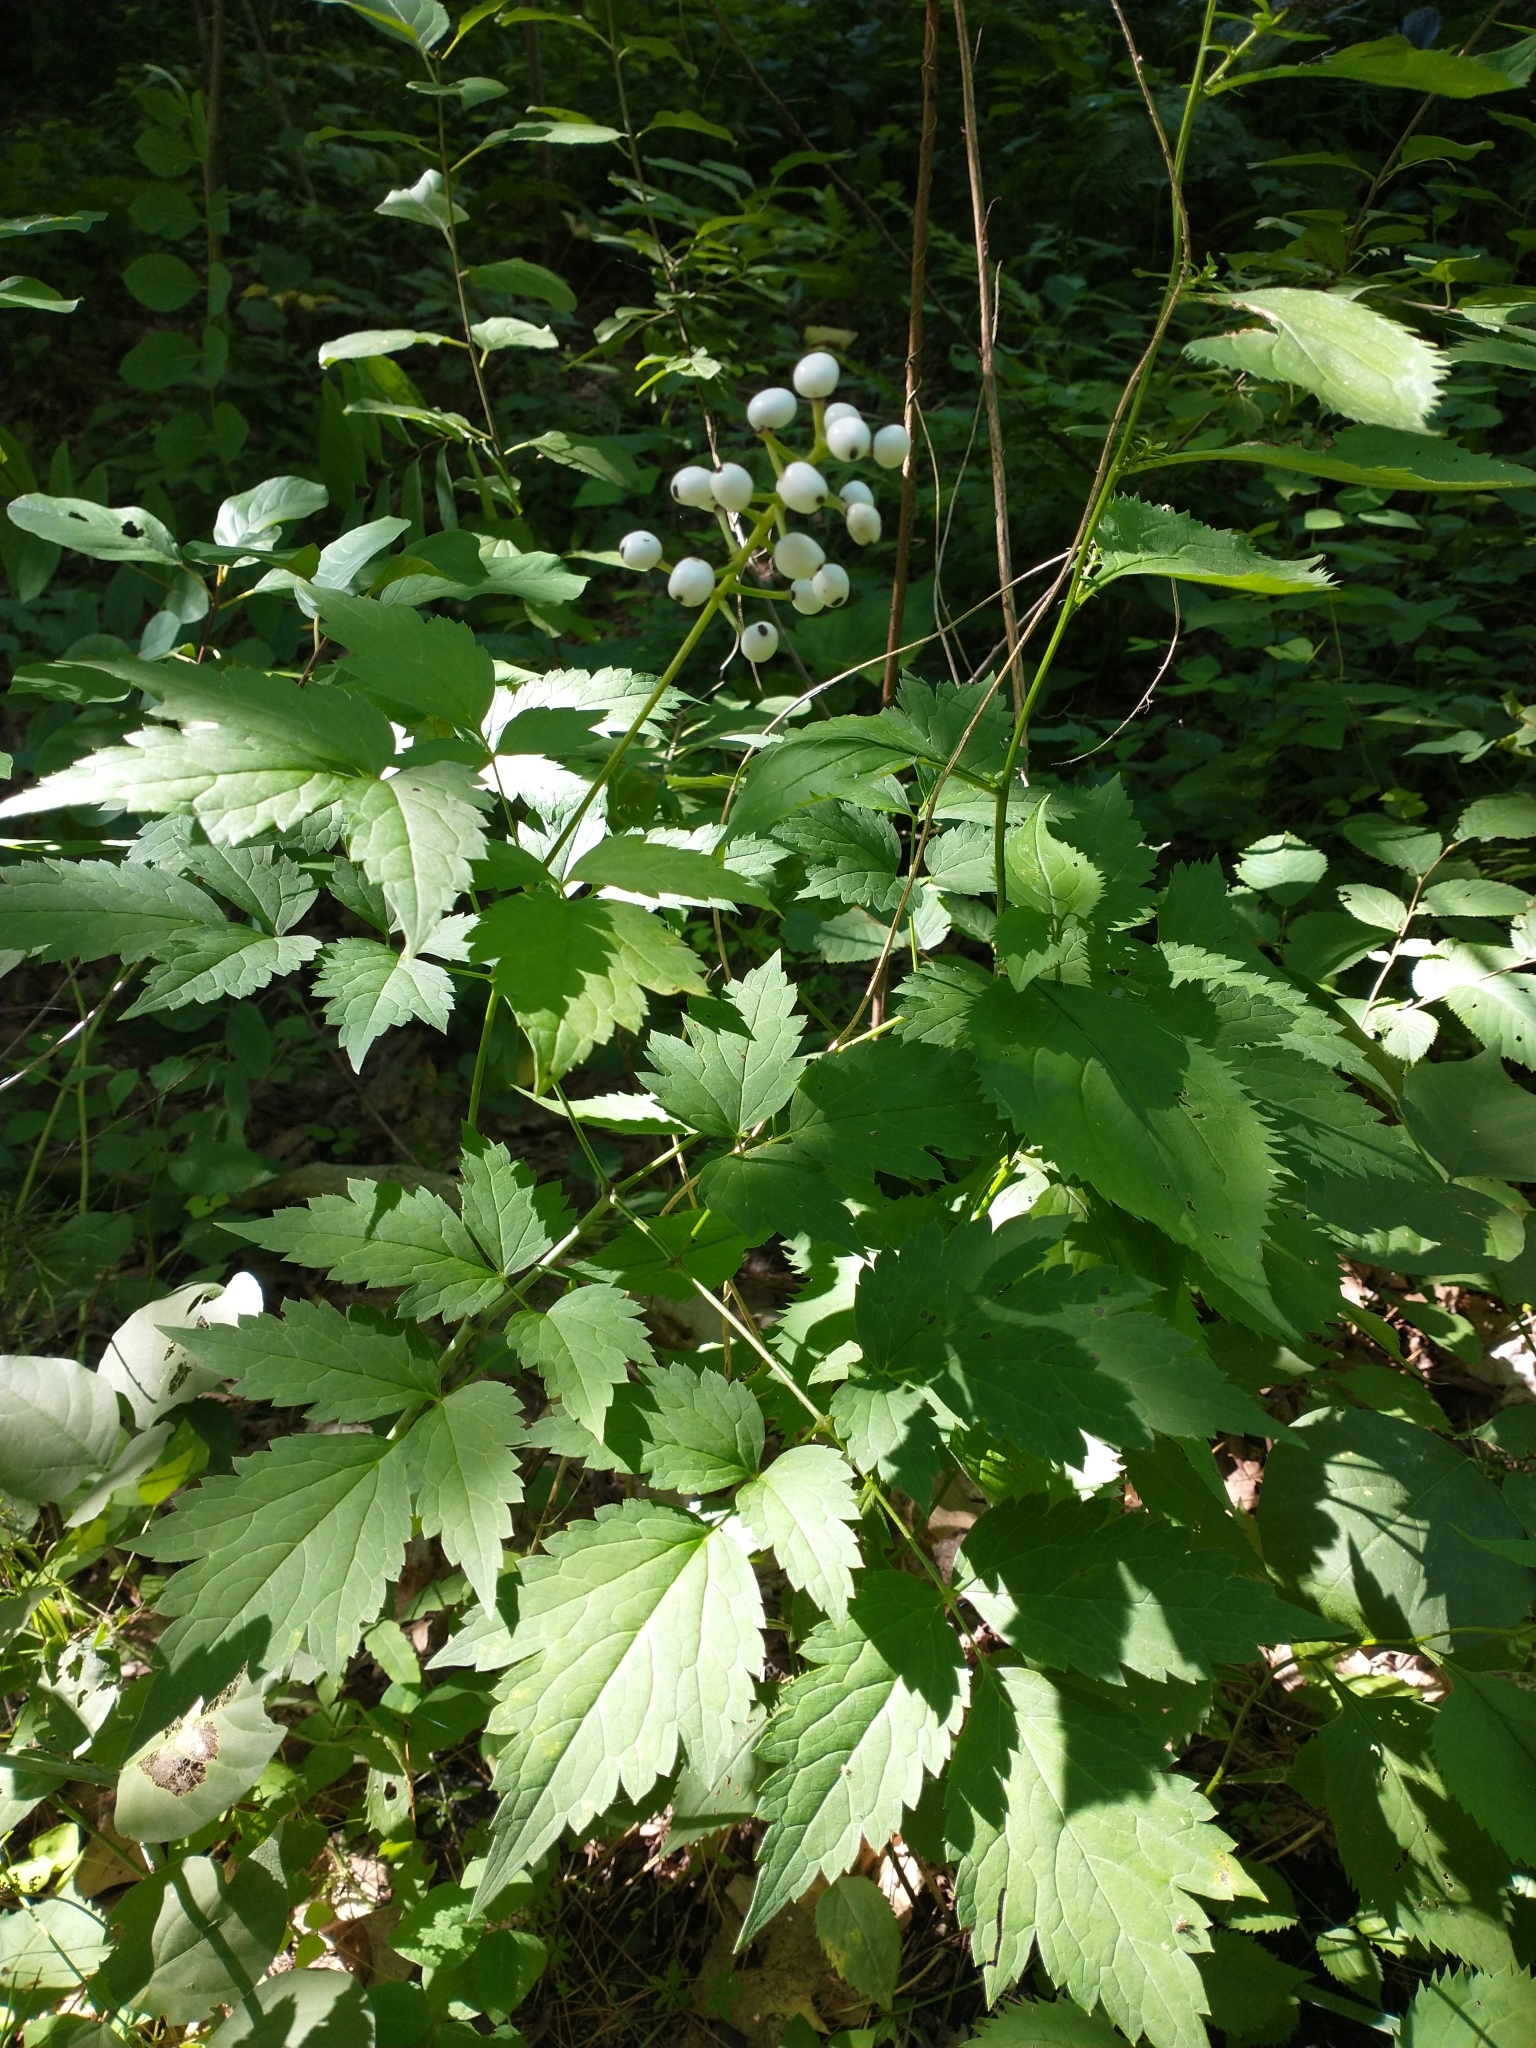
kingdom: Plantae
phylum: Tracheophyta
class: Magnoliopsida
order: Ranunculales
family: Ranunculaceae
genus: Actaea
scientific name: Actaea ludovici
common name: Ludovic's baneberry
